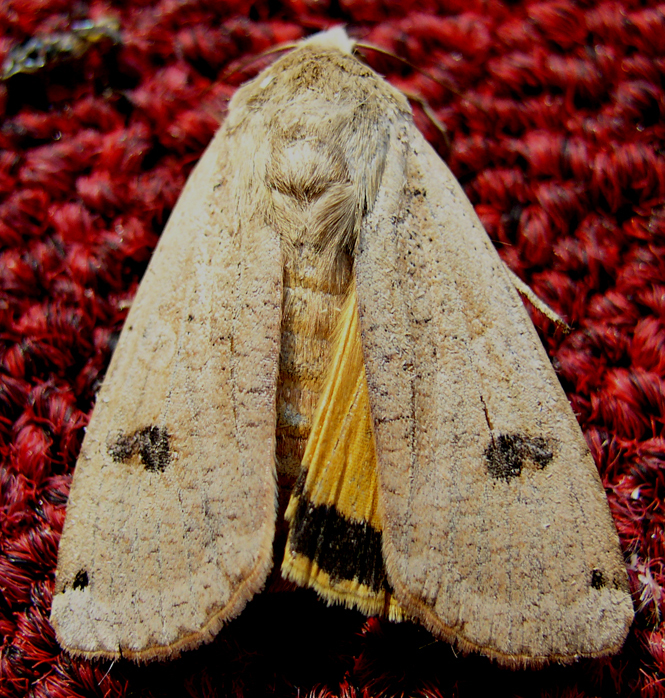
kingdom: Animalia
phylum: Arthropoda
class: Insecta
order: Lepidoptera
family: Noctuidae
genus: Noctua
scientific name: Noctua pronuba
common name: Large yellow underwing
